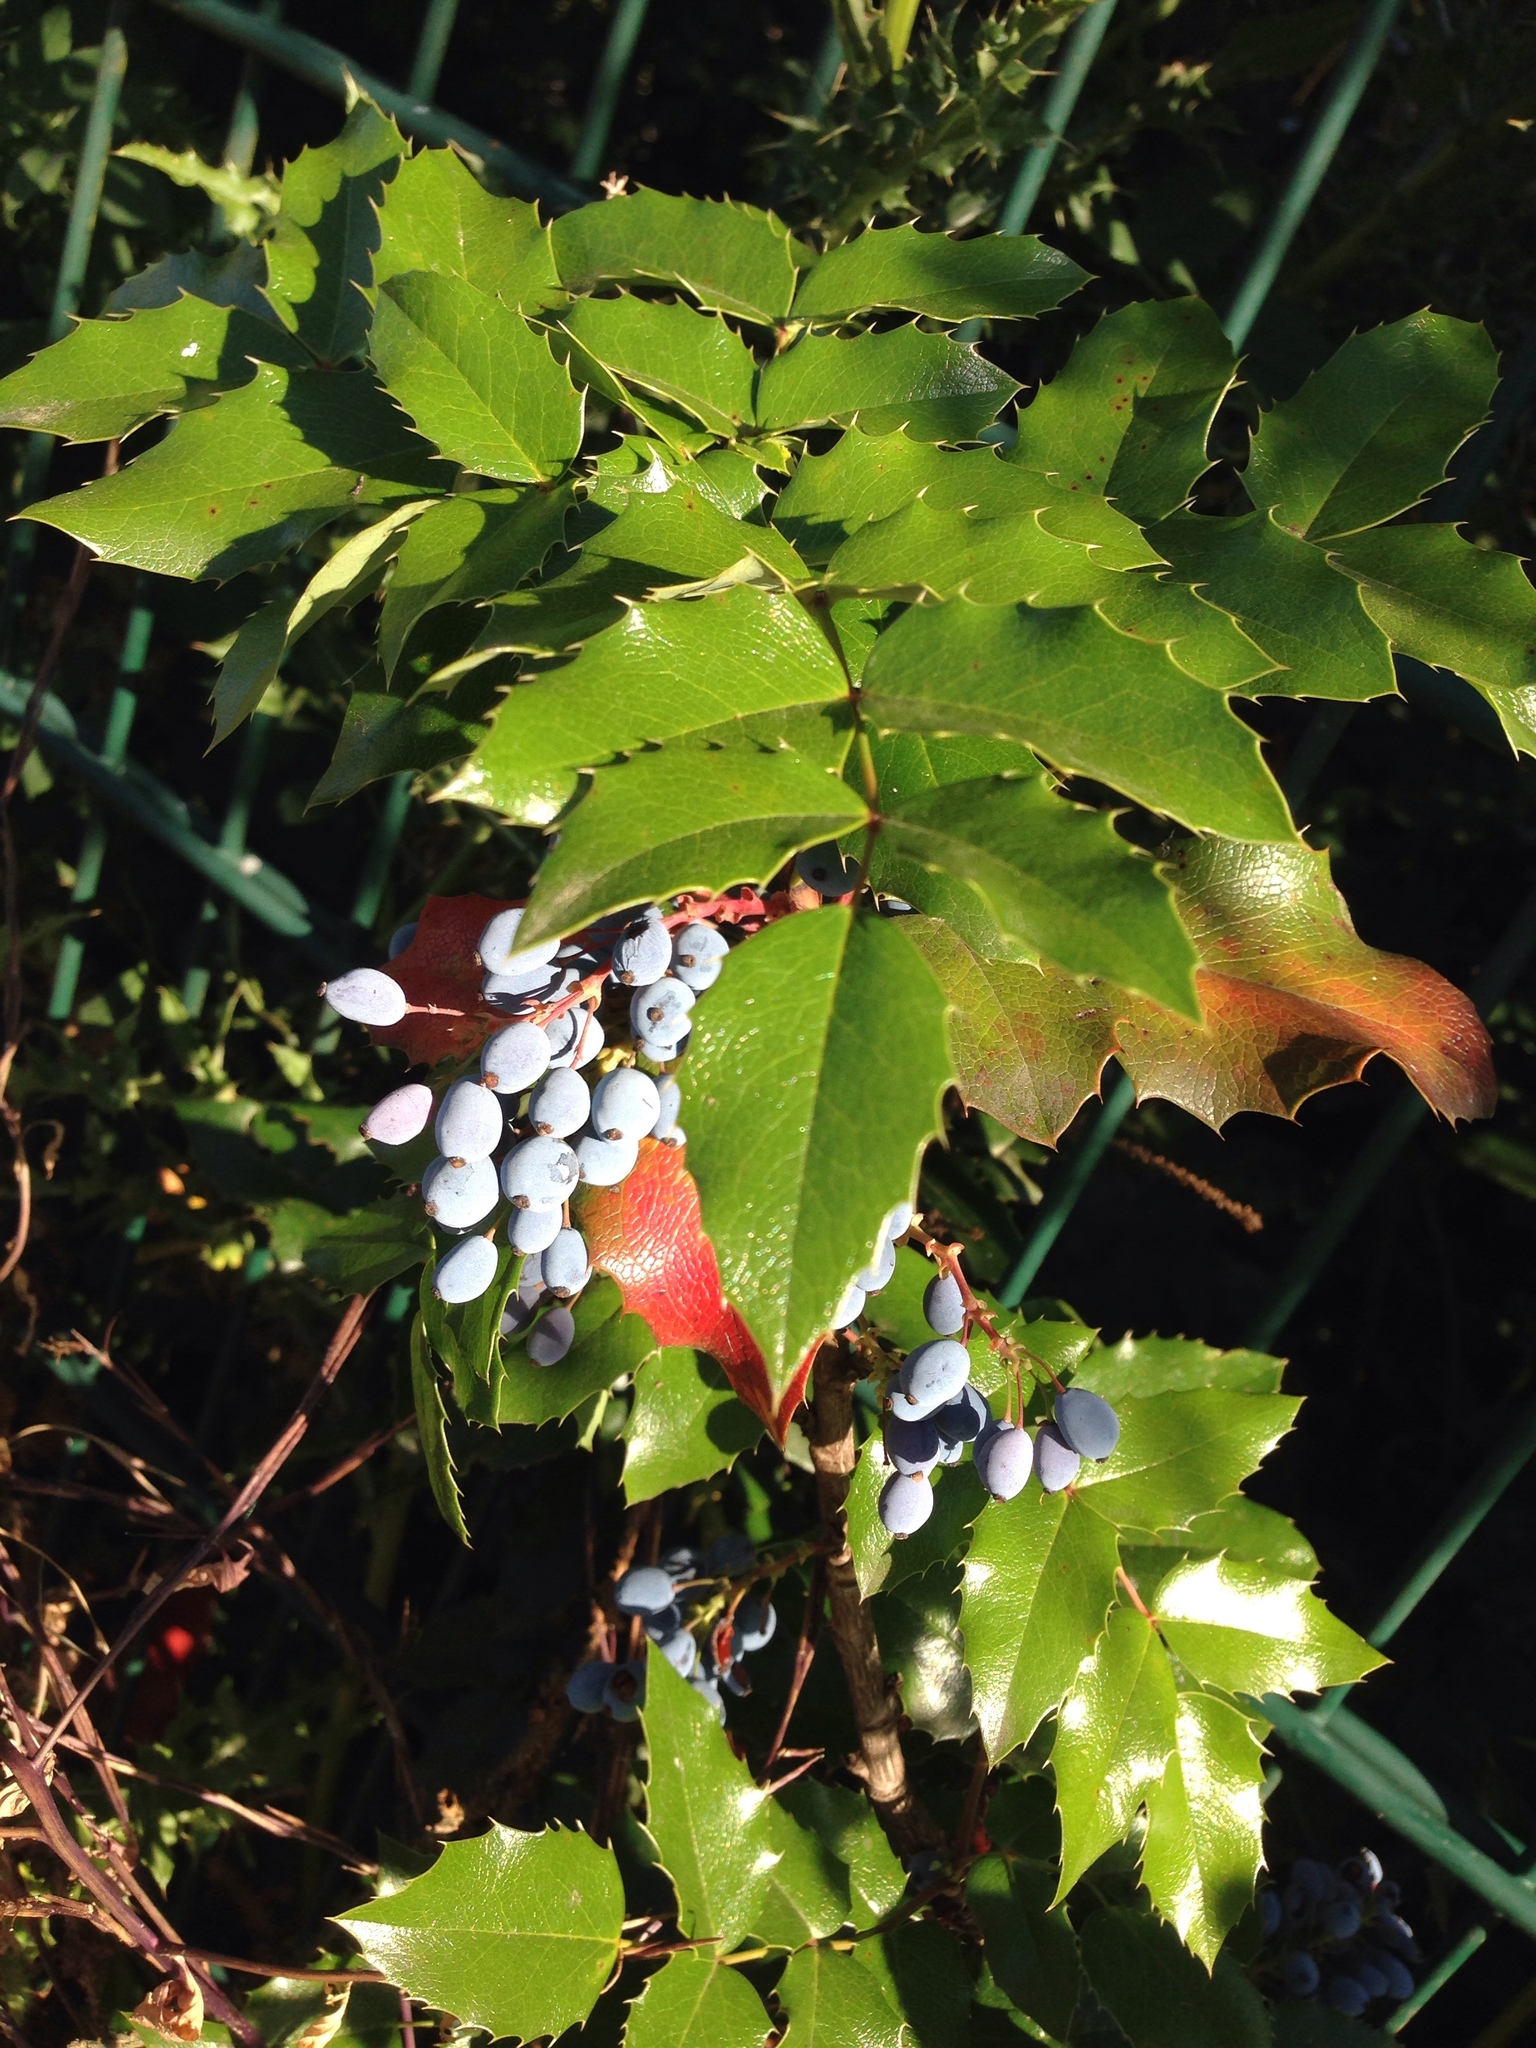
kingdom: Plantae
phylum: Tracheophyta
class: Magnoliopsida
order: Ranunculales
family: Berberidaceae
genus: Mahonia
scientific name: Mahonia aquifolium
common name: Oregon-grape
